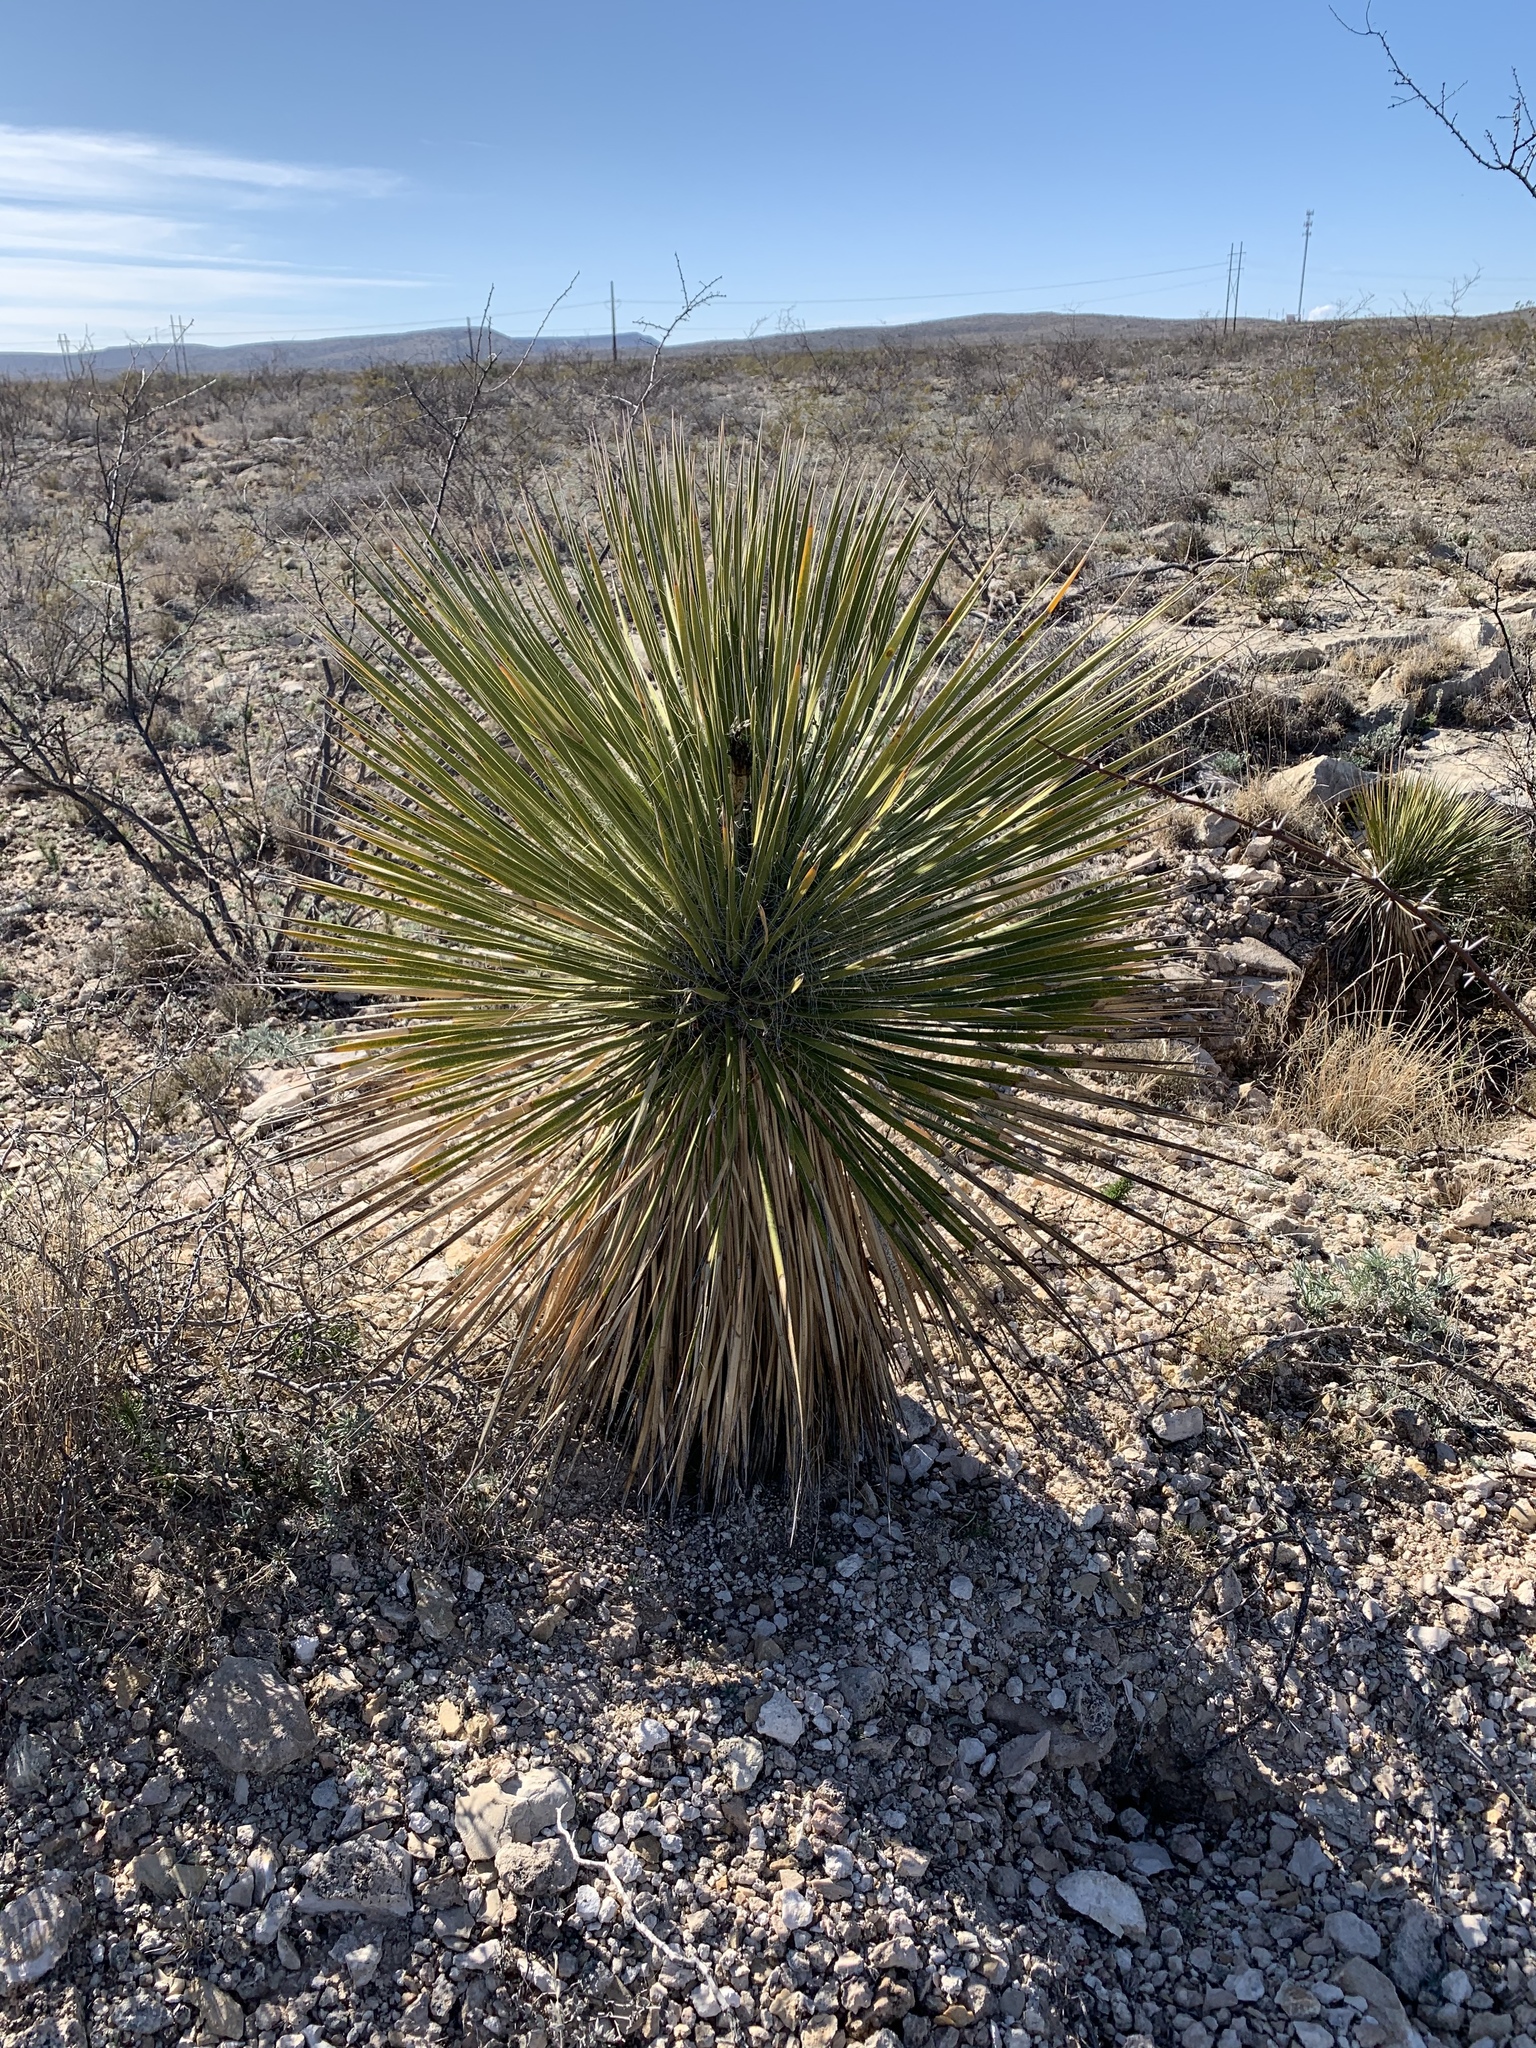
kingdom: Plantae
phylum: Tracheophyta
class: Liliopsida
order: Asparagales
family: Asparagaceae
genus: Yucca
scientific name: Yucca elata
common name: Palmella
